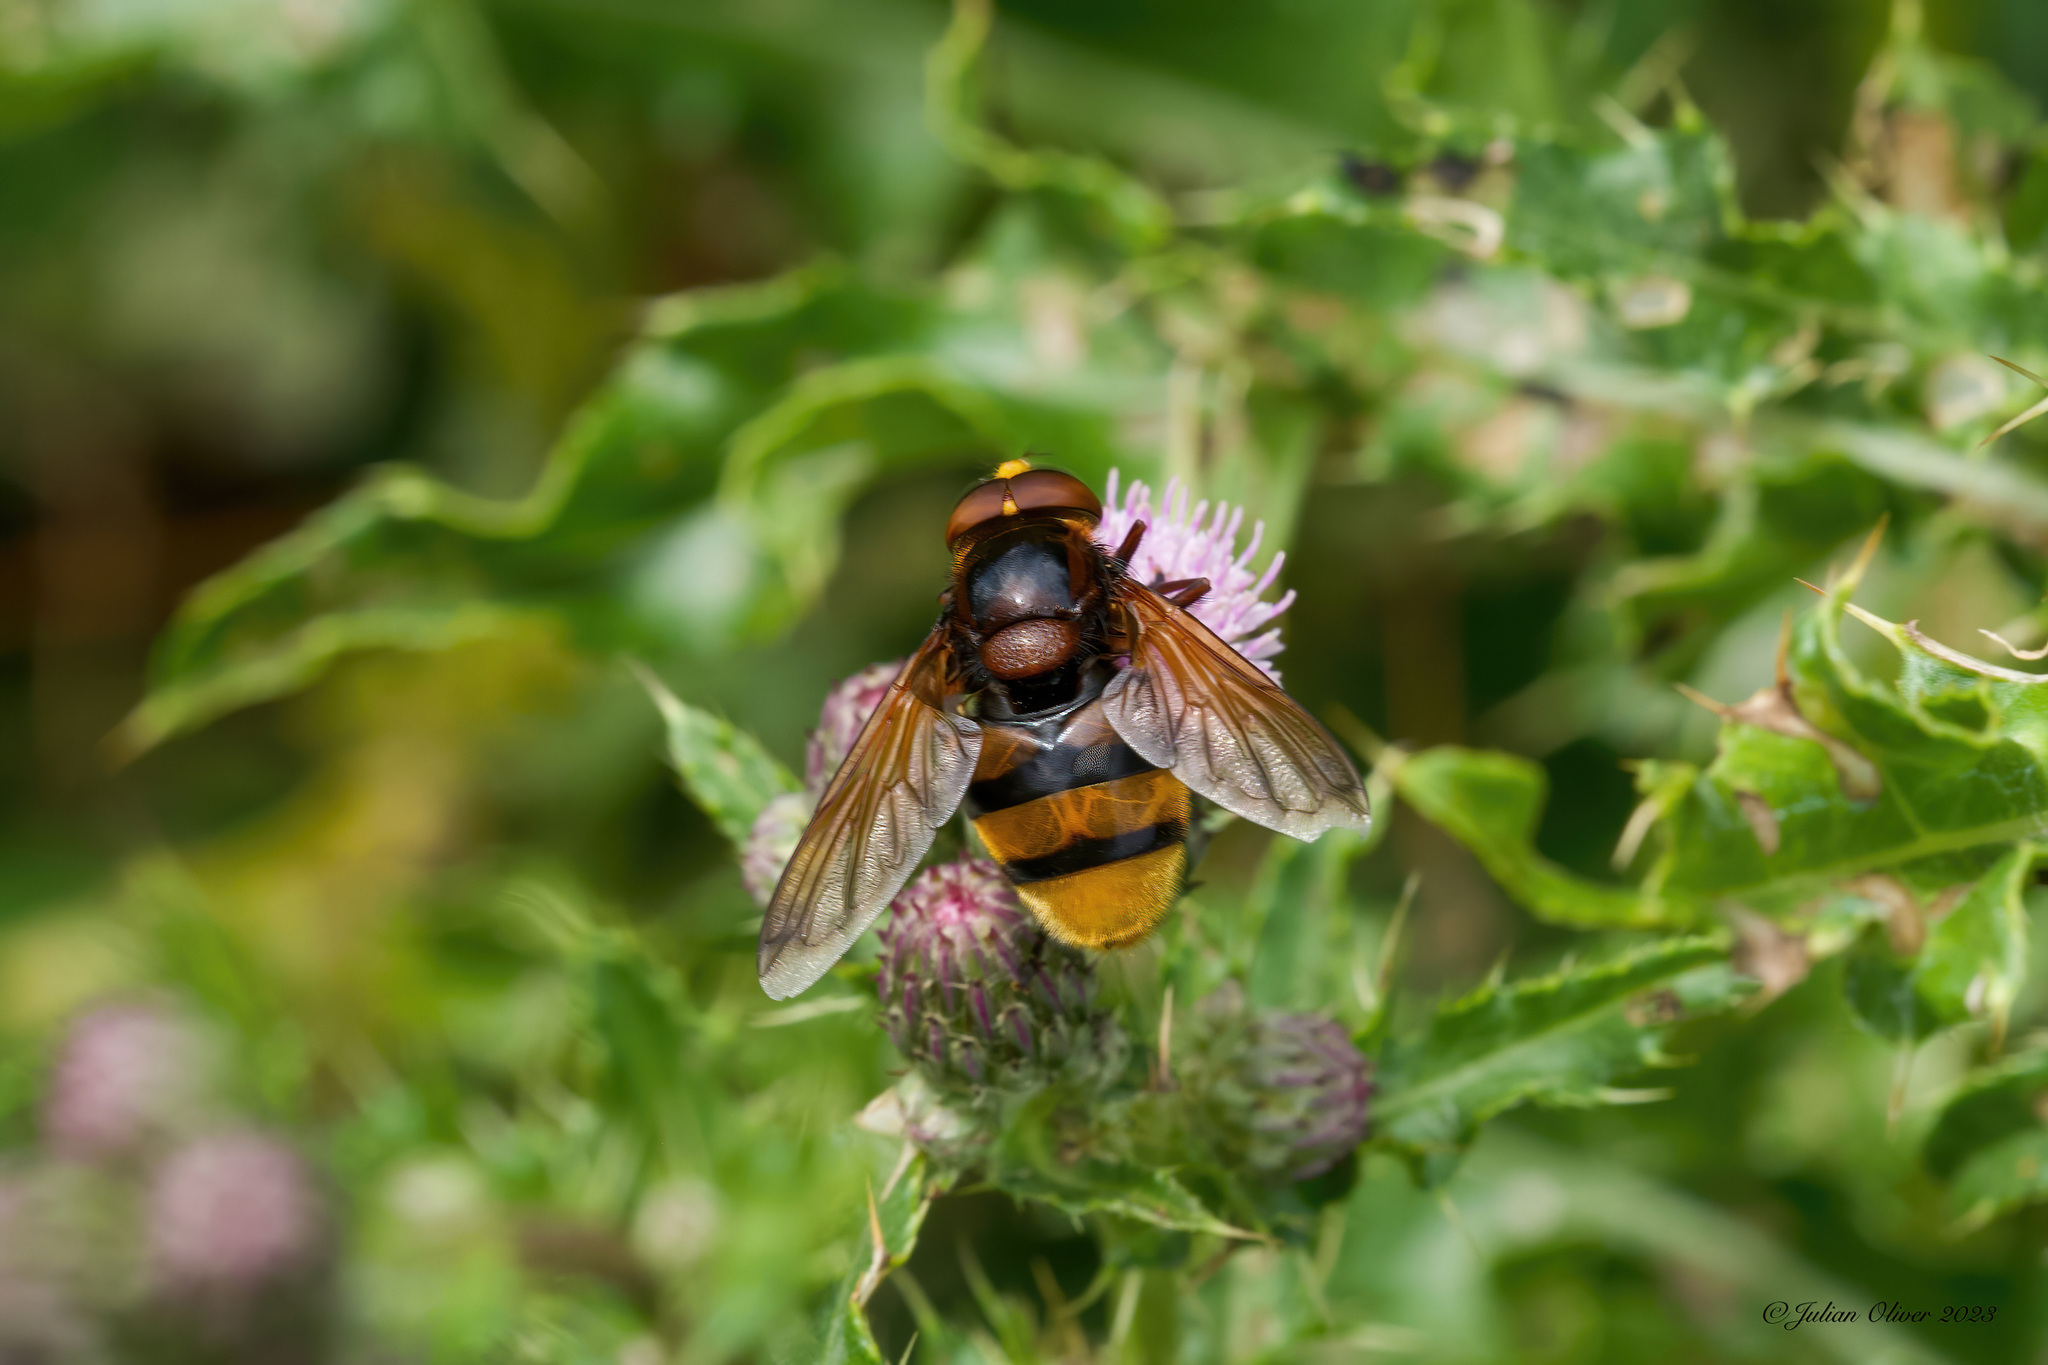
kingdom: Animalia
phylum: Arthropoda
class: Insecta
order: Diptera
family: Syrphidae
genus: Volucella
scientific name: Volucella zonaria
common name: Hornet hoverfly
